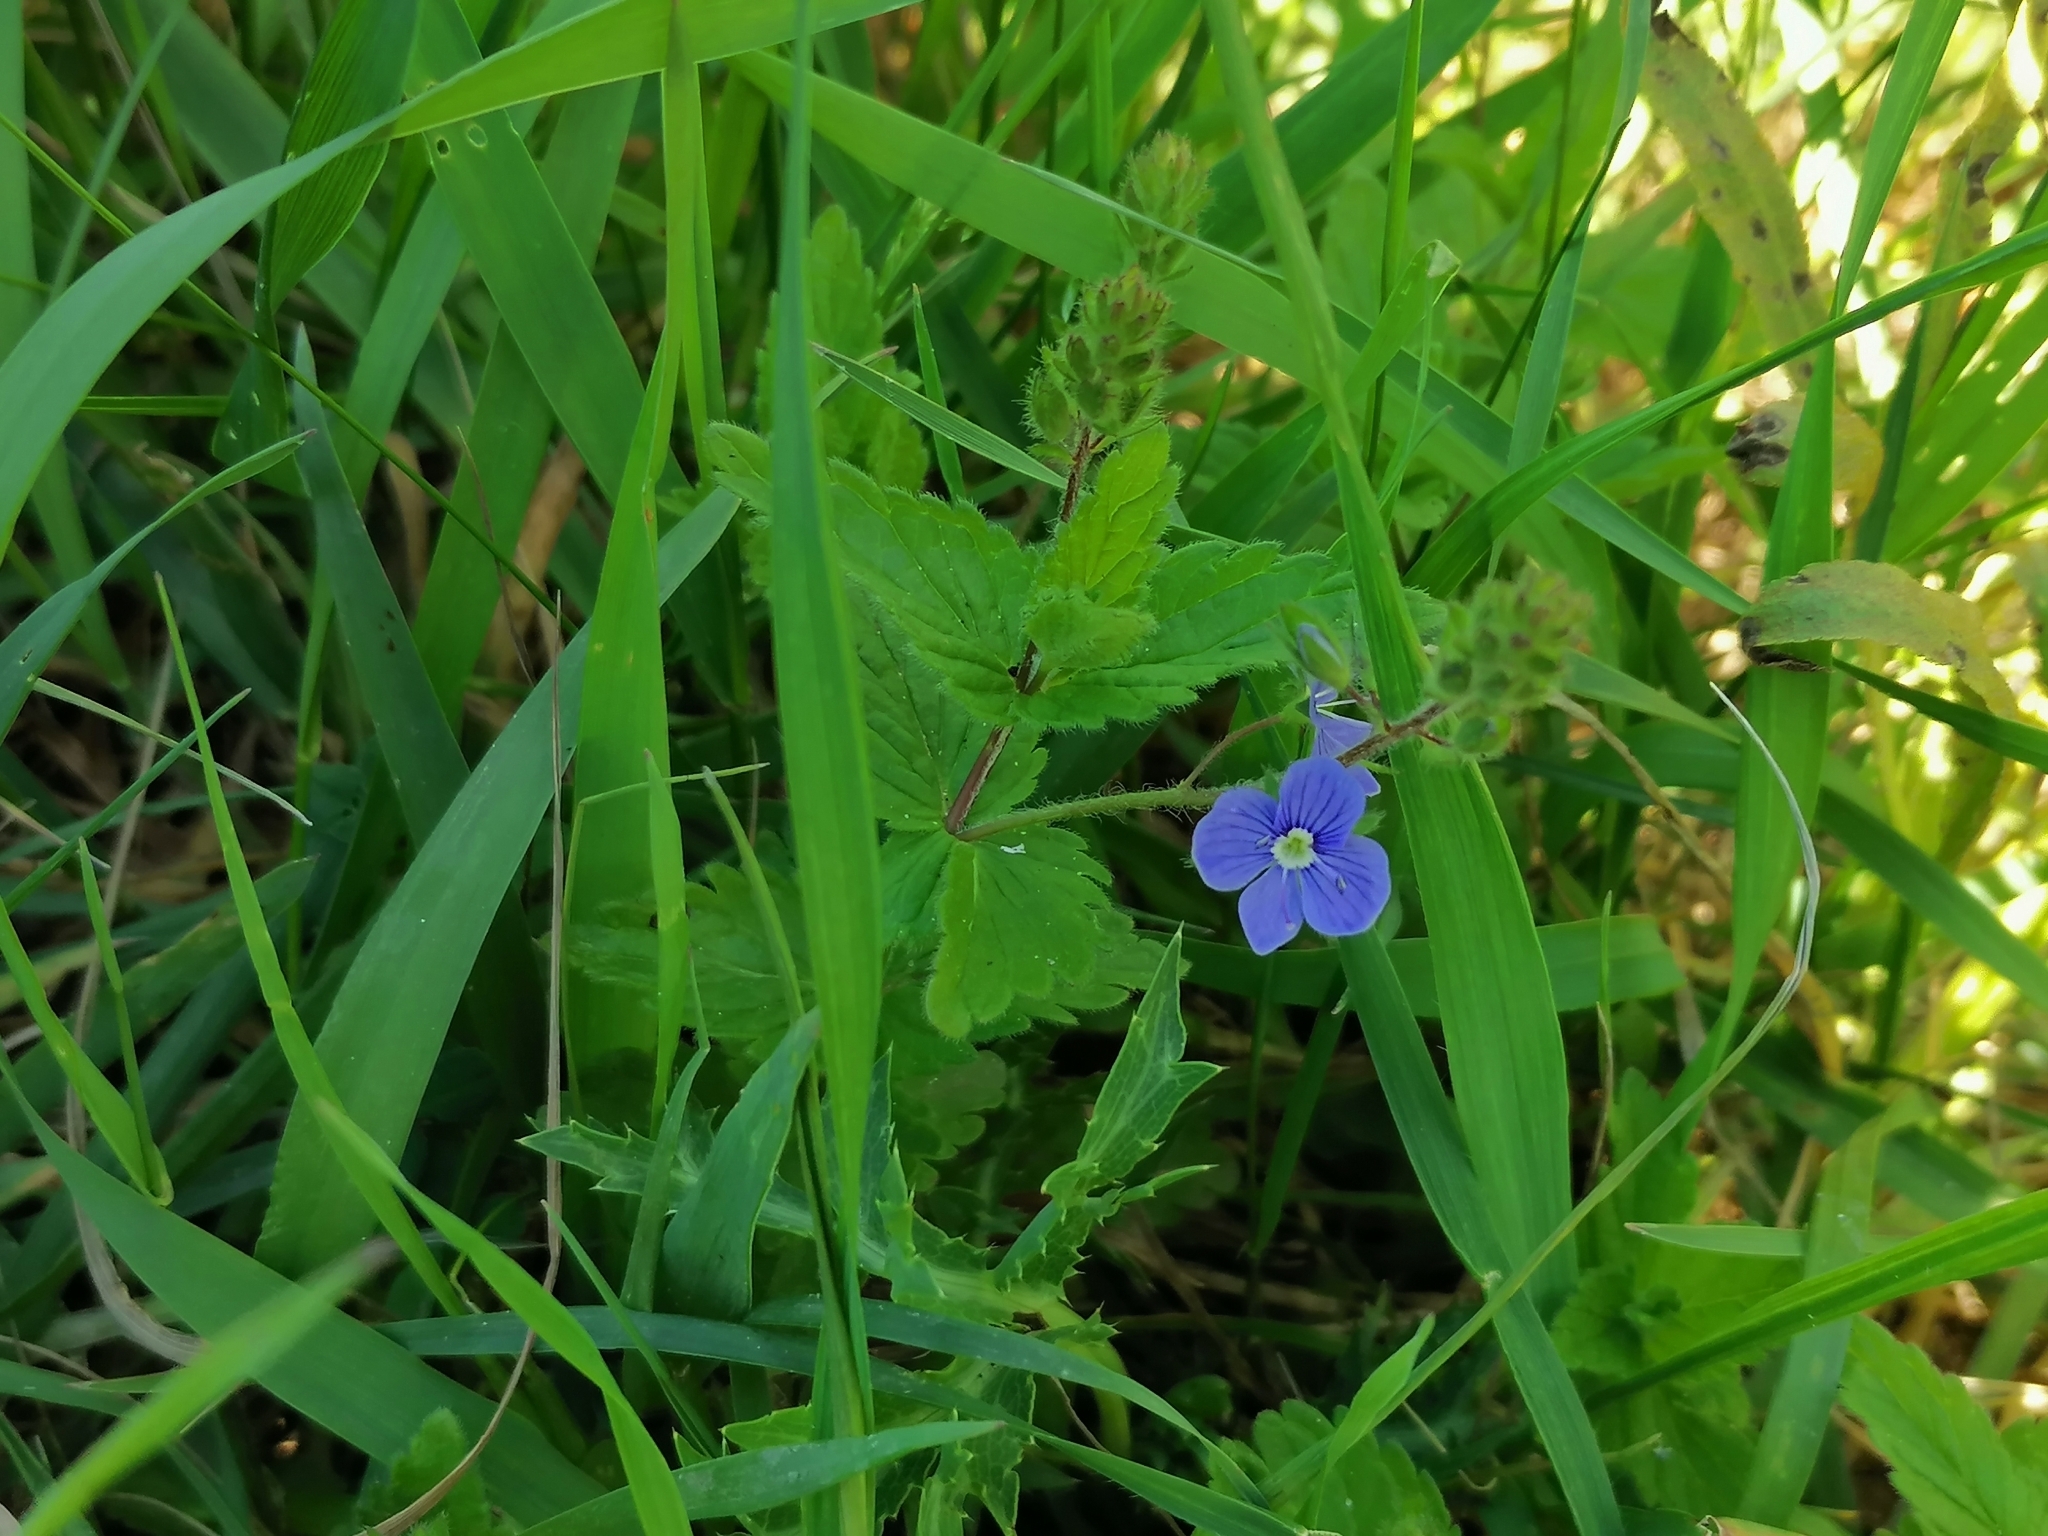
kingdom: Plantae
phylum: Tracheophyta
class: Magnoliopsida
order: Lamiales
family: Plantaginaceae
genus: Veronica
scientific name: Veronica chamaedrys
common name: Germander speedwell
